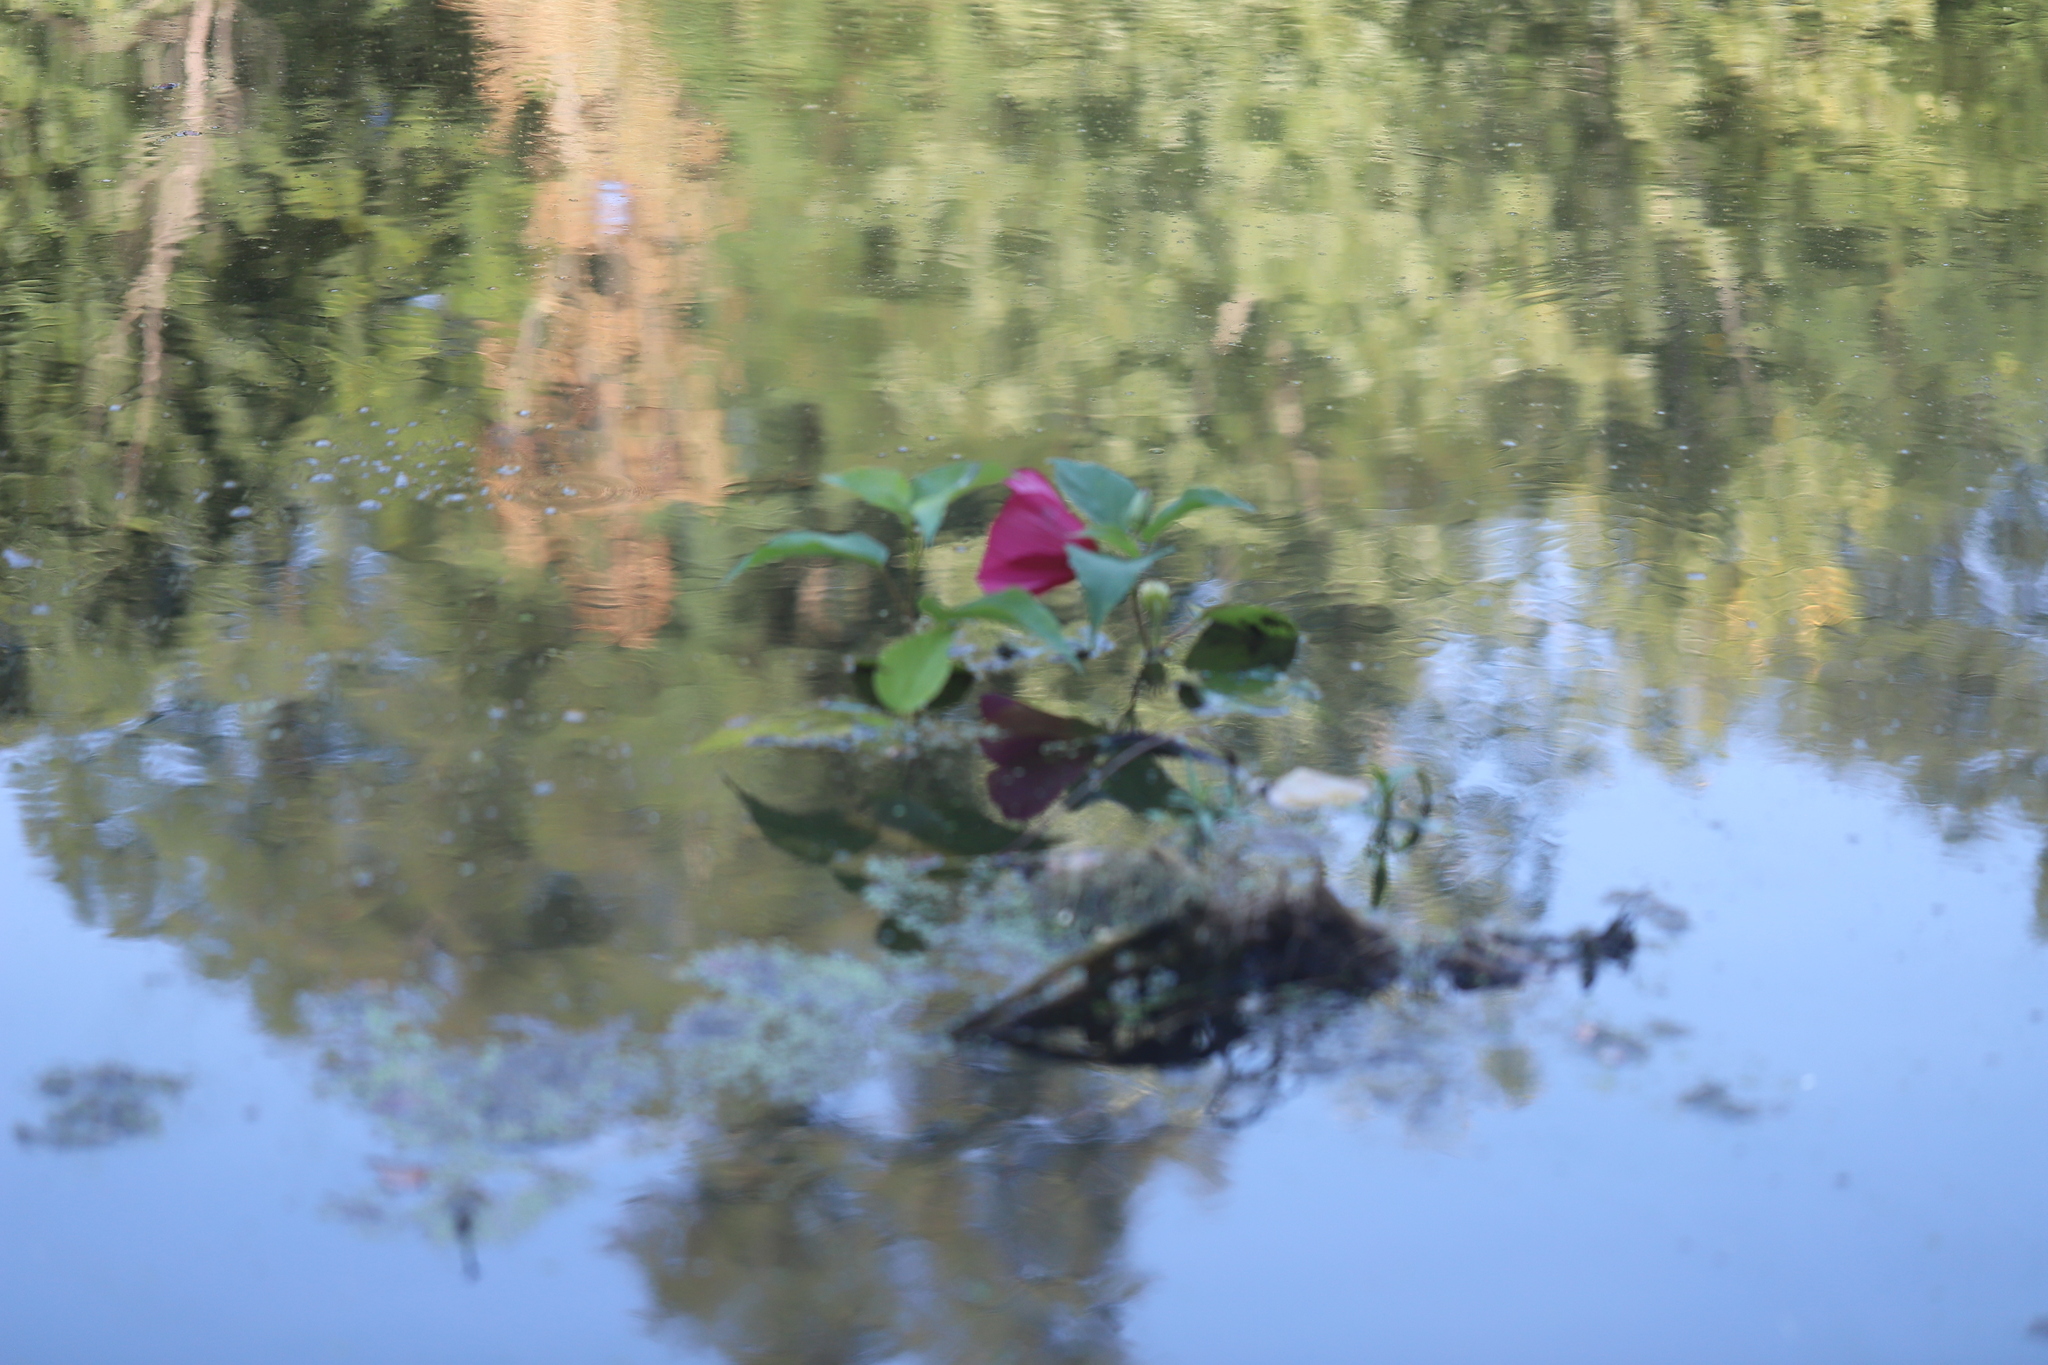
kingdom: Plantae
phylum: Tracheophyta
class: Magnoliopsida
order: Malvales
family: Malvaceae
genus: Hibiscus
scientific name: Hibiscus moscheutos
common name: Common rose-mallow
